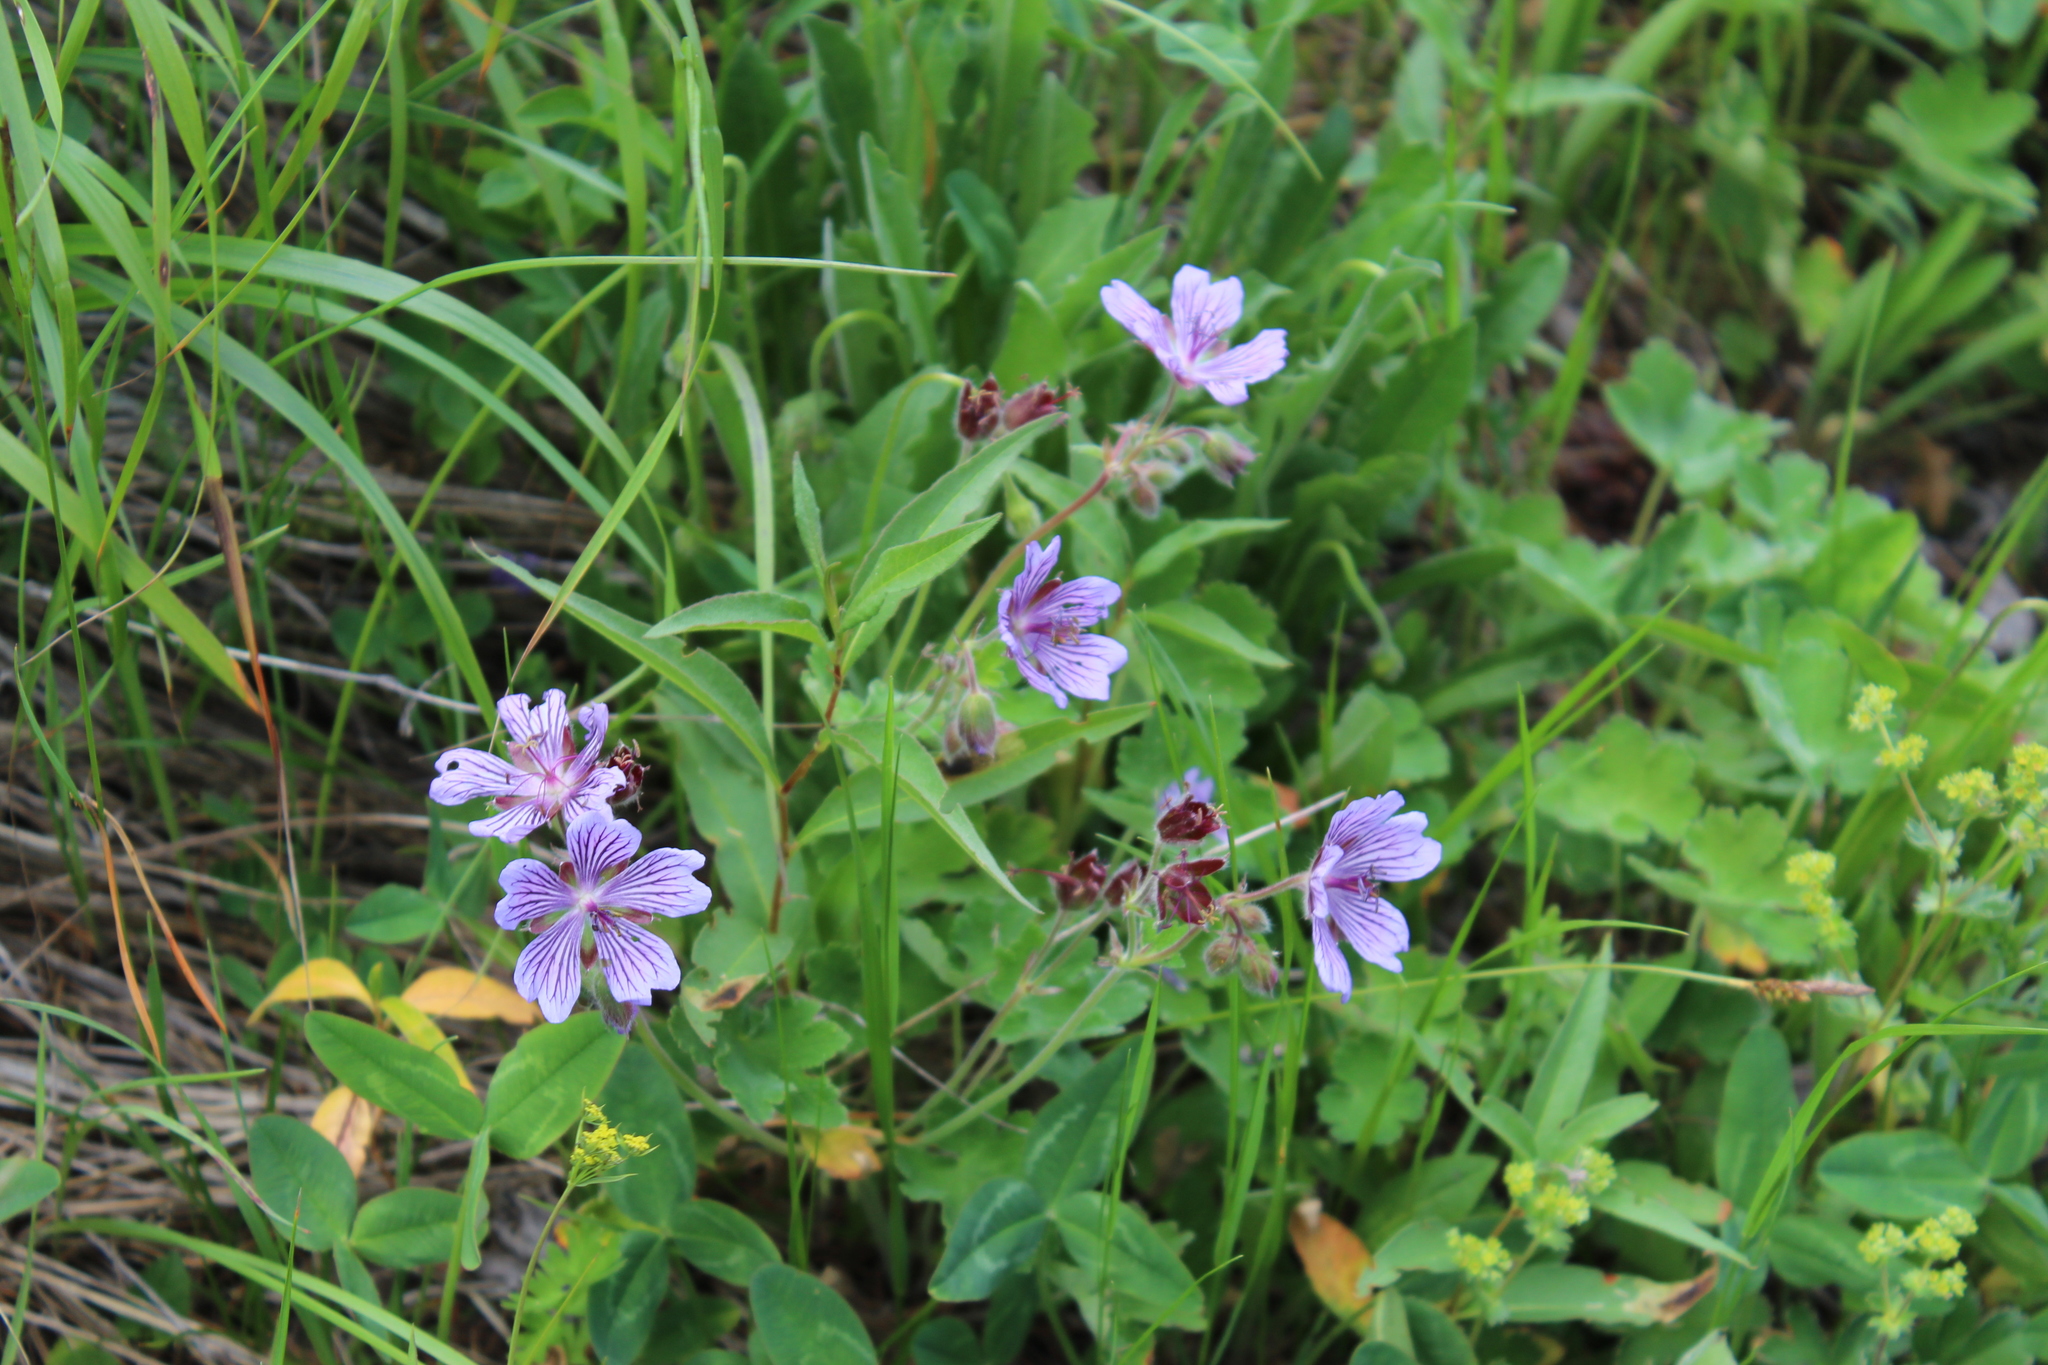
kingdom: Plantae
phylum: Tracheophyta
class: Magnoliopsida
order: Geraniales
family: Geraniaceae
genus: Geranium
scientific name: Geranium renardii
